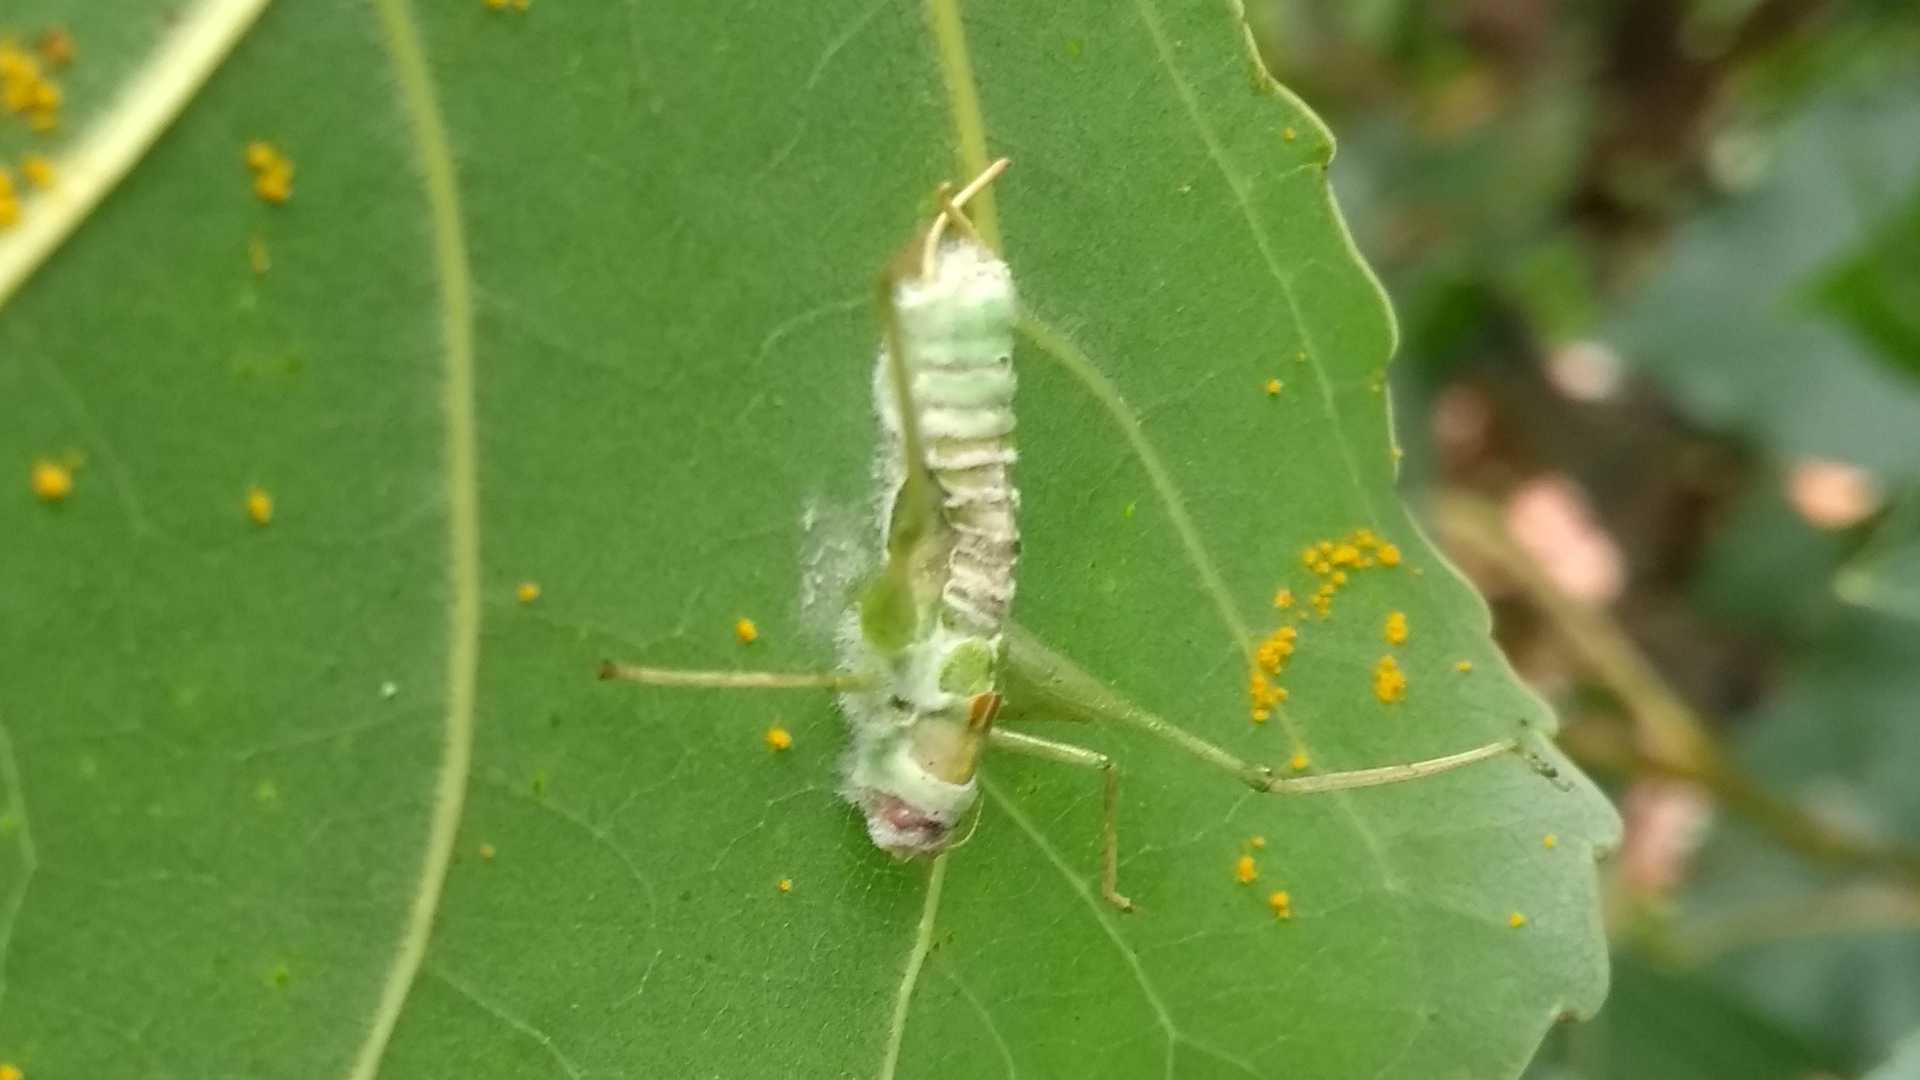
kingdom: Animalia
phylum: Arthropoda
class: Insecta
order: Orthoptera
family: Tettigoniidae
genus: Meconema
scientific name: Meconema meridionale
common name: Southern oak bush-cricket
